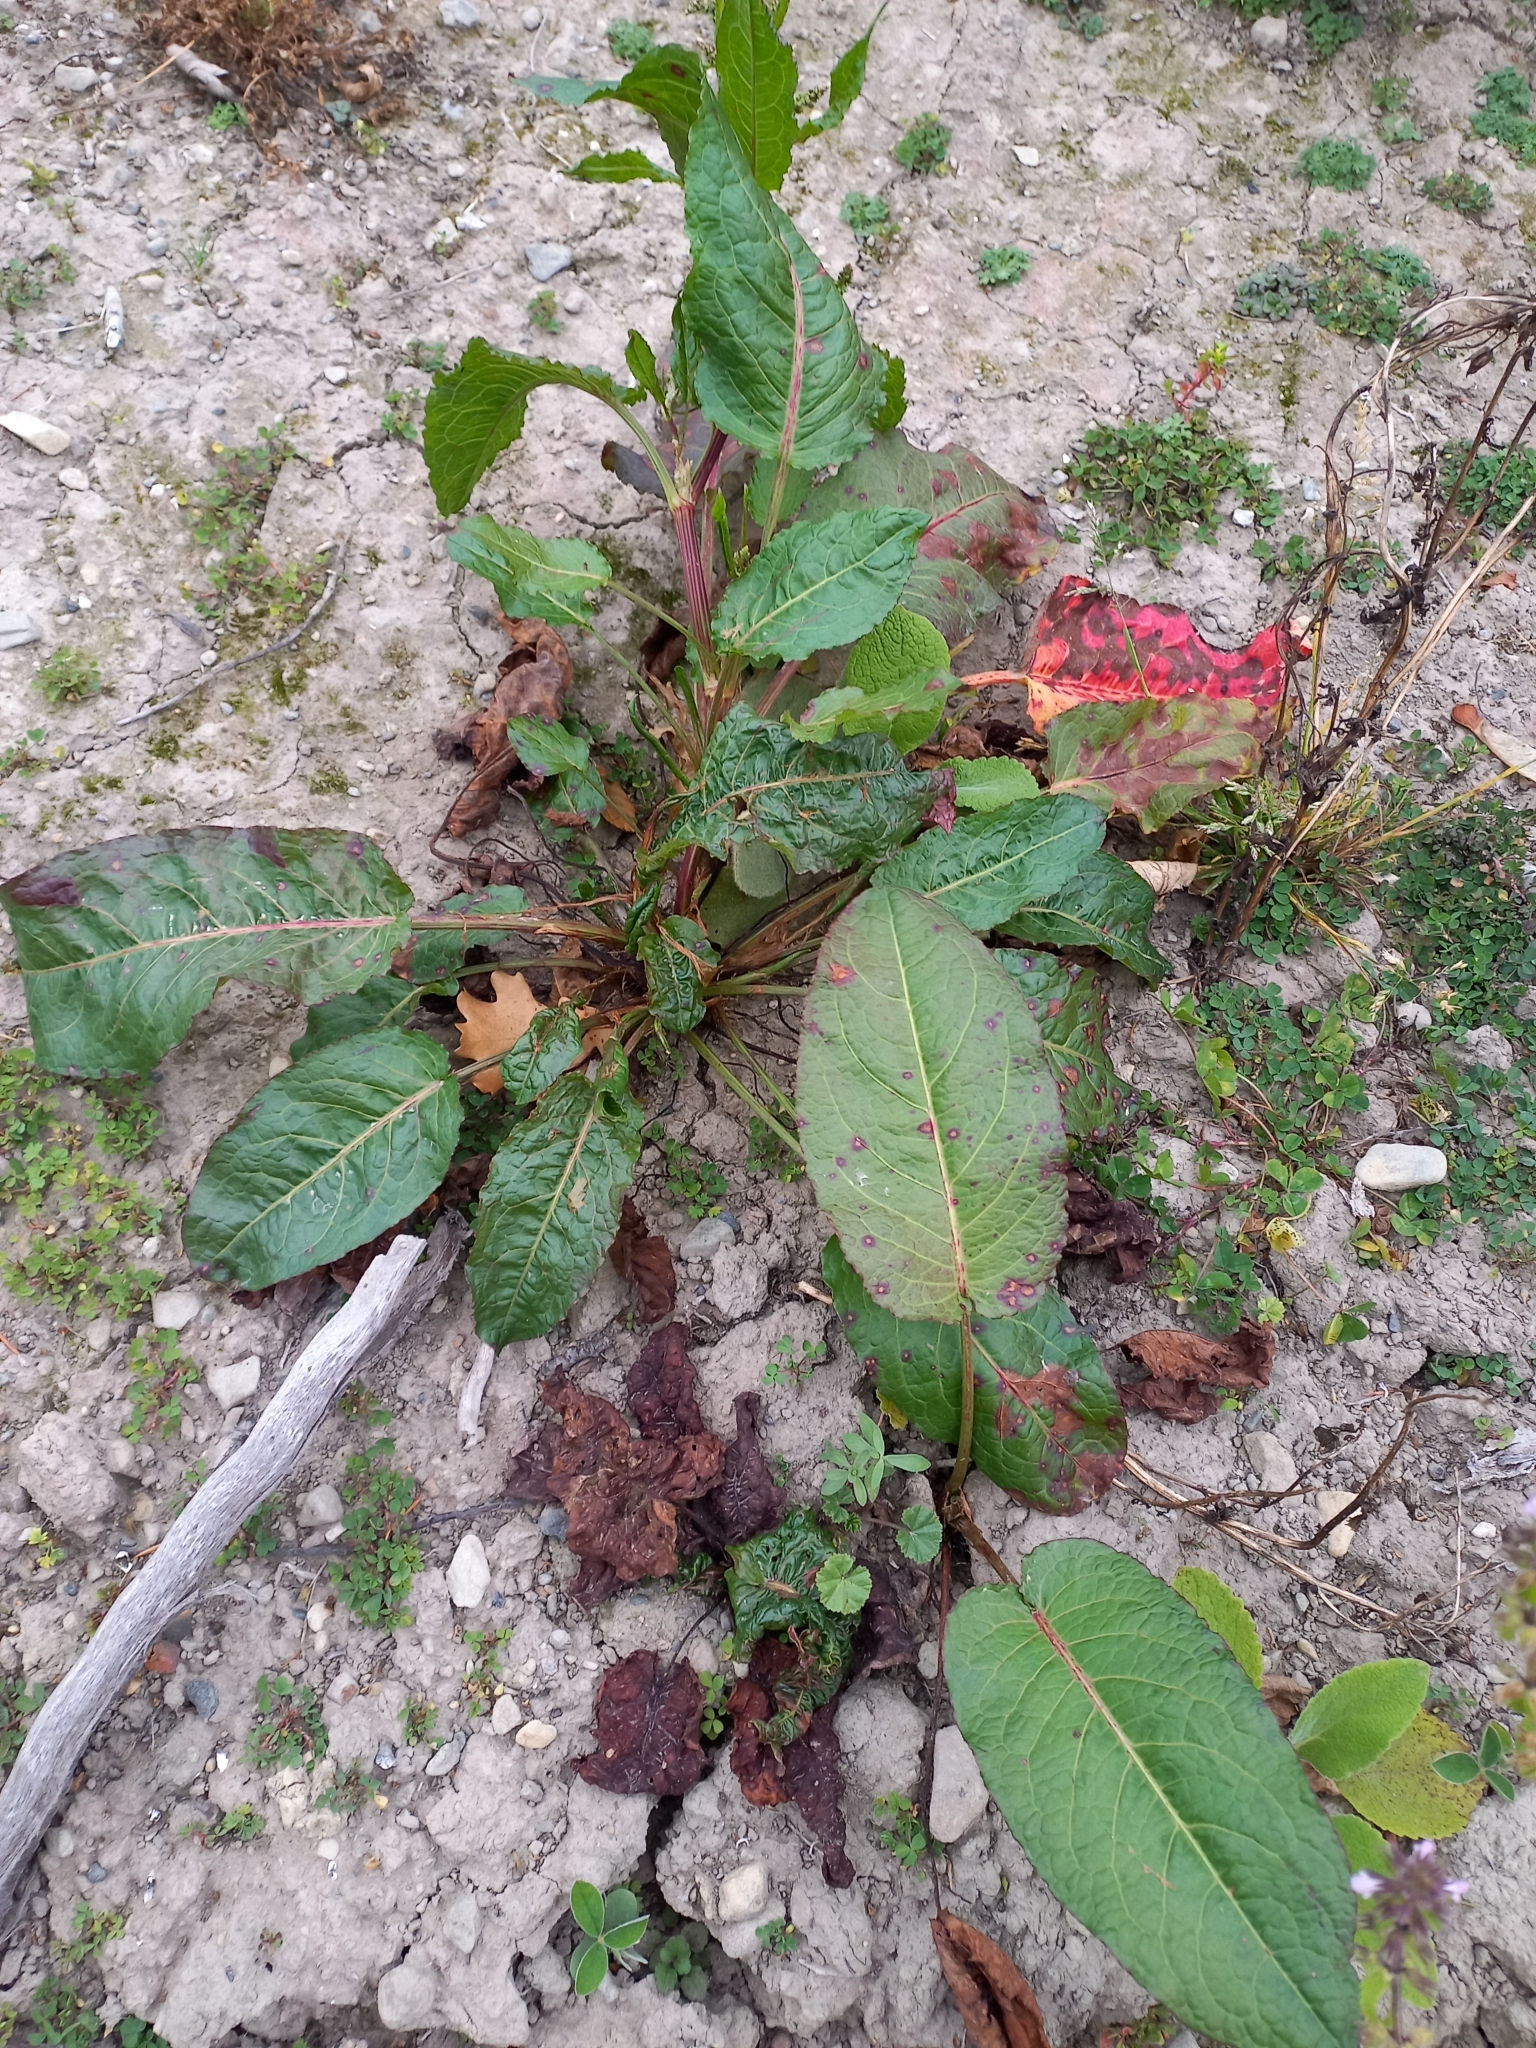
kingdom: Plantae
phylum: Tracheophyta
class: Magnoliopsida
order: Caryophyllales
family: Polygonaceae
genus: Rumex
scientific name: Rumex obtusifolius
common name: Bitter dock
